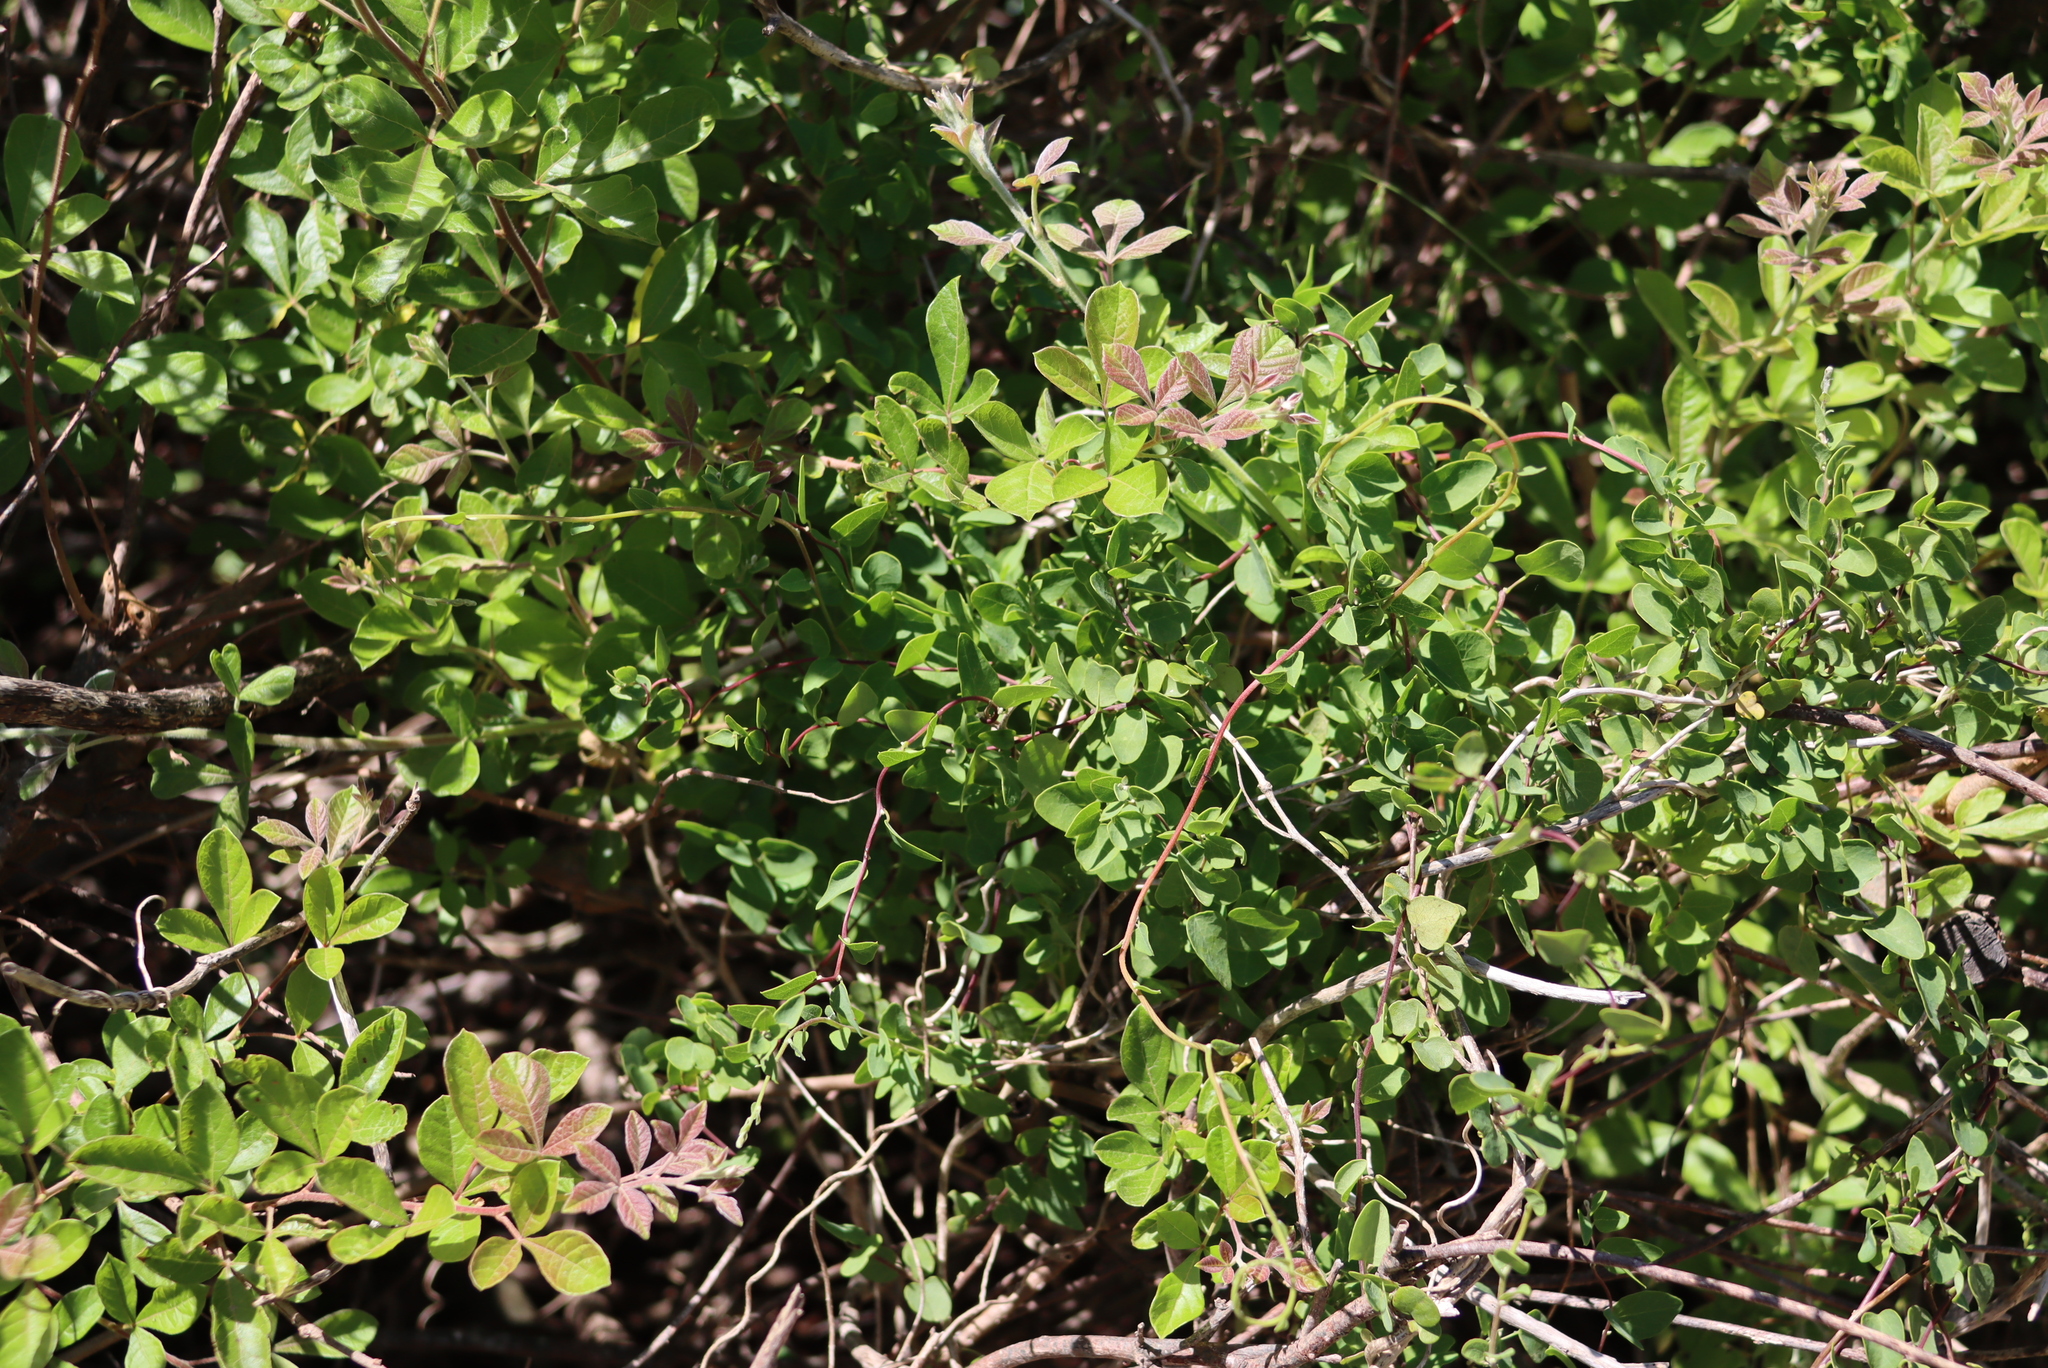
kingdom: Plantae
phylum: Tracheophyta
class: Magnoliopsida
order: Sapindales
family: Anacardiaceae
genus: Searsia
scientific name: Searsia rehmanniana
